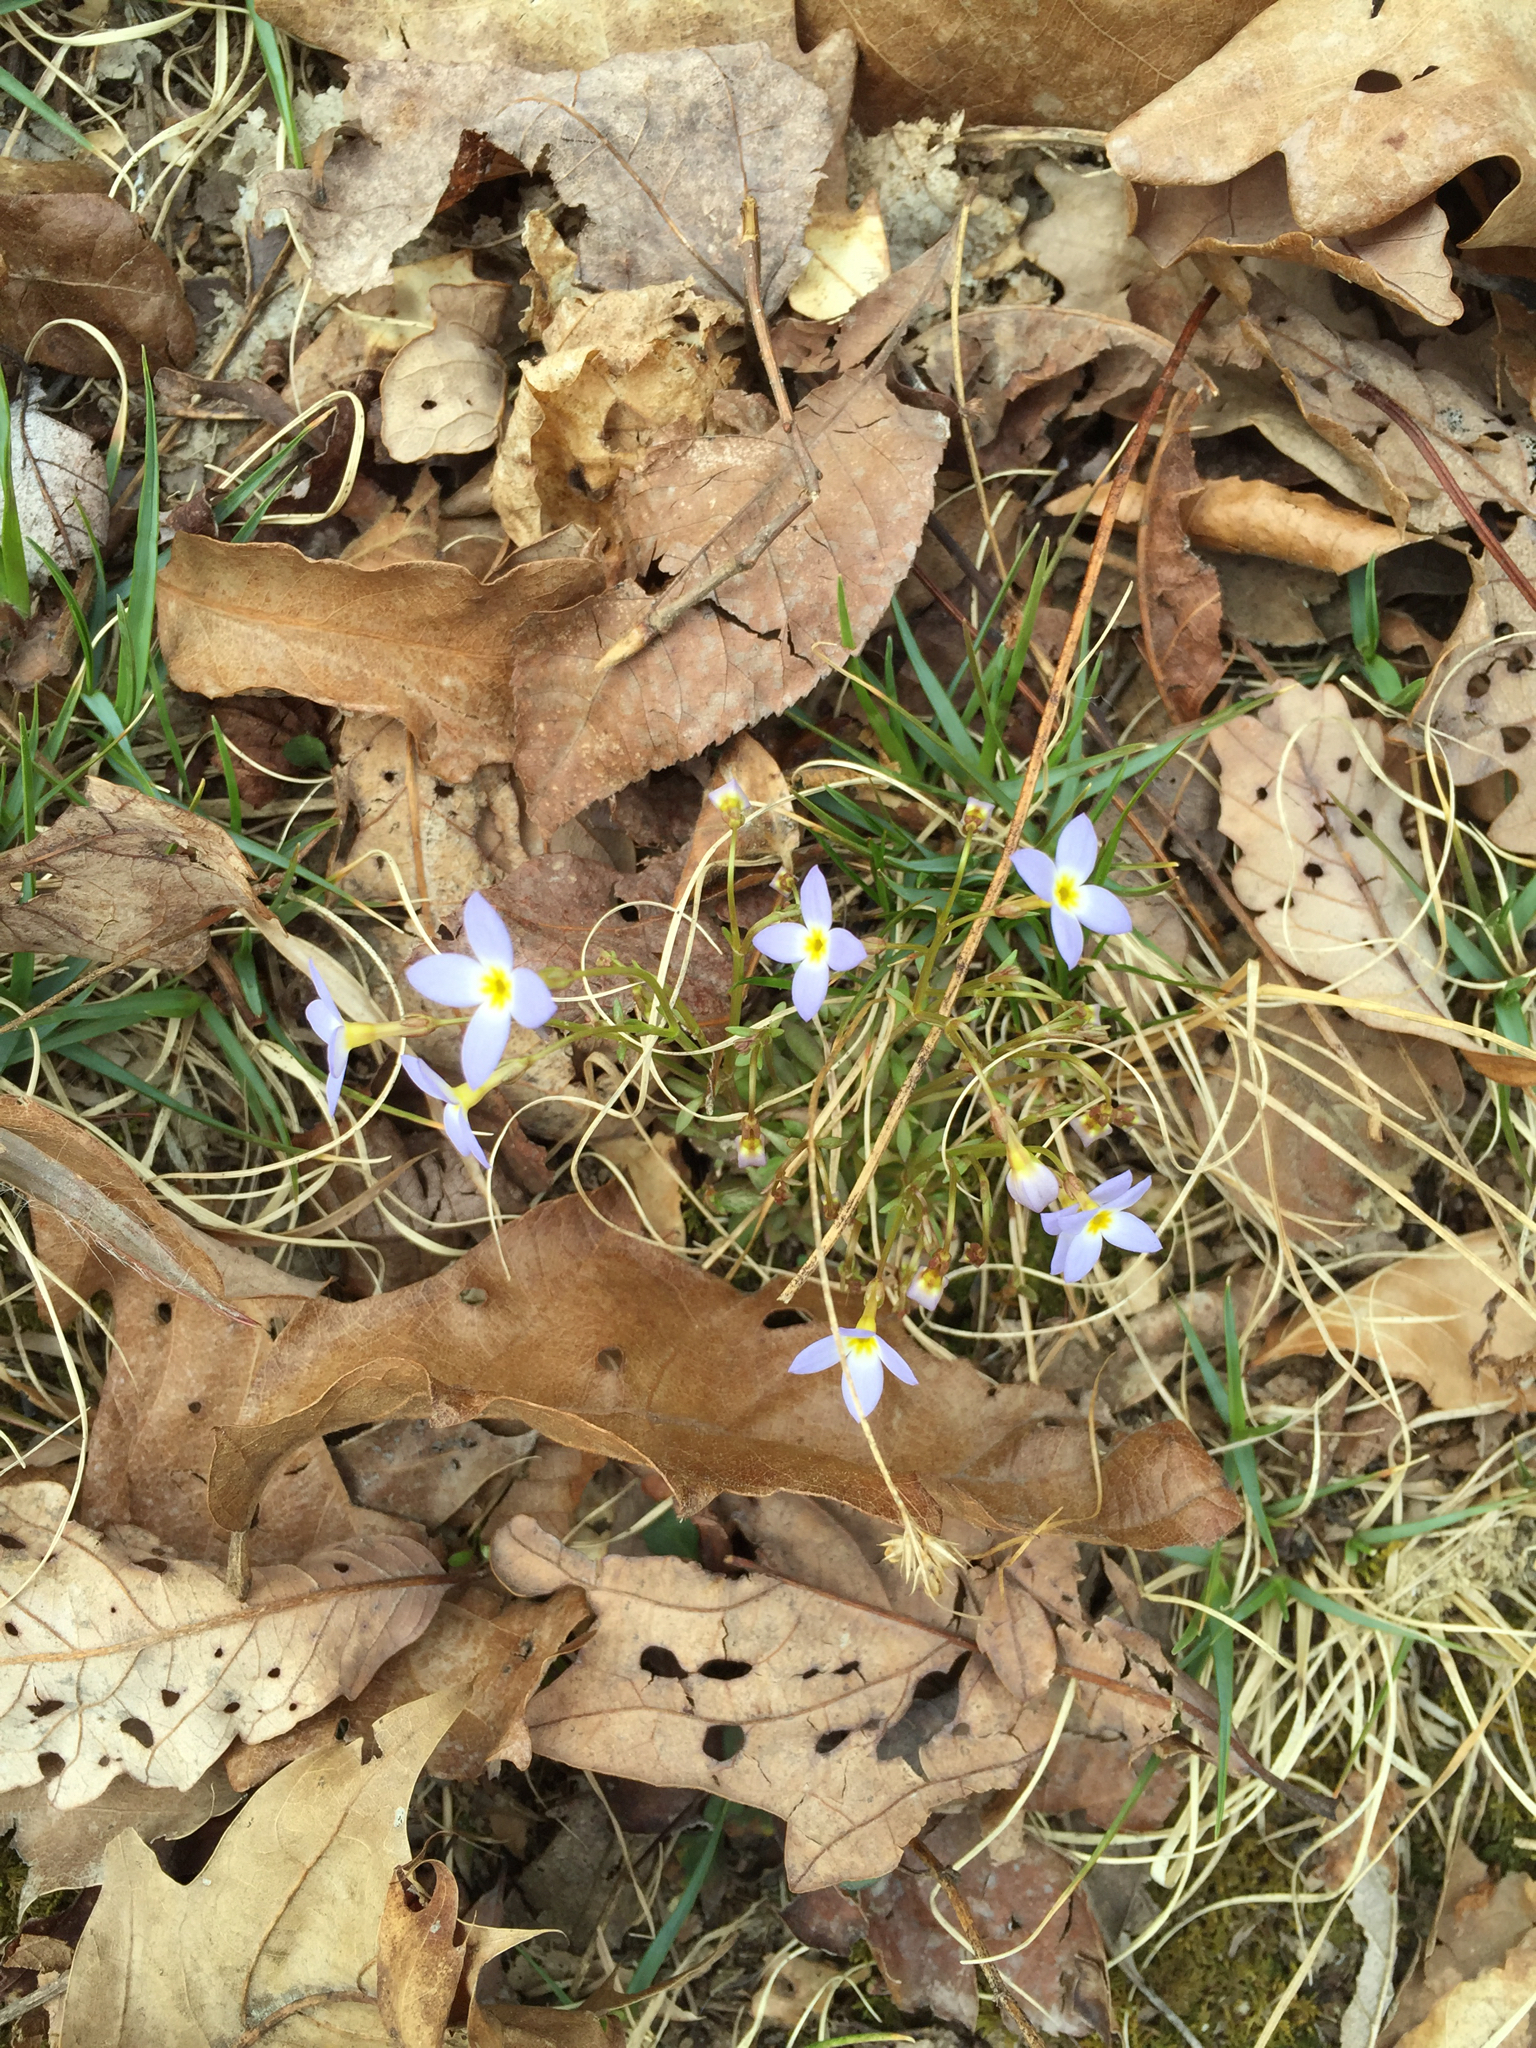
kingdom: Plantae
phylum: Tracheophyta
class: Magnoliopsida
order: Gentianales
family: Rubiaceae
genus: Houstonia
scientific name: Houstonia caerulea
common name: Bluets
